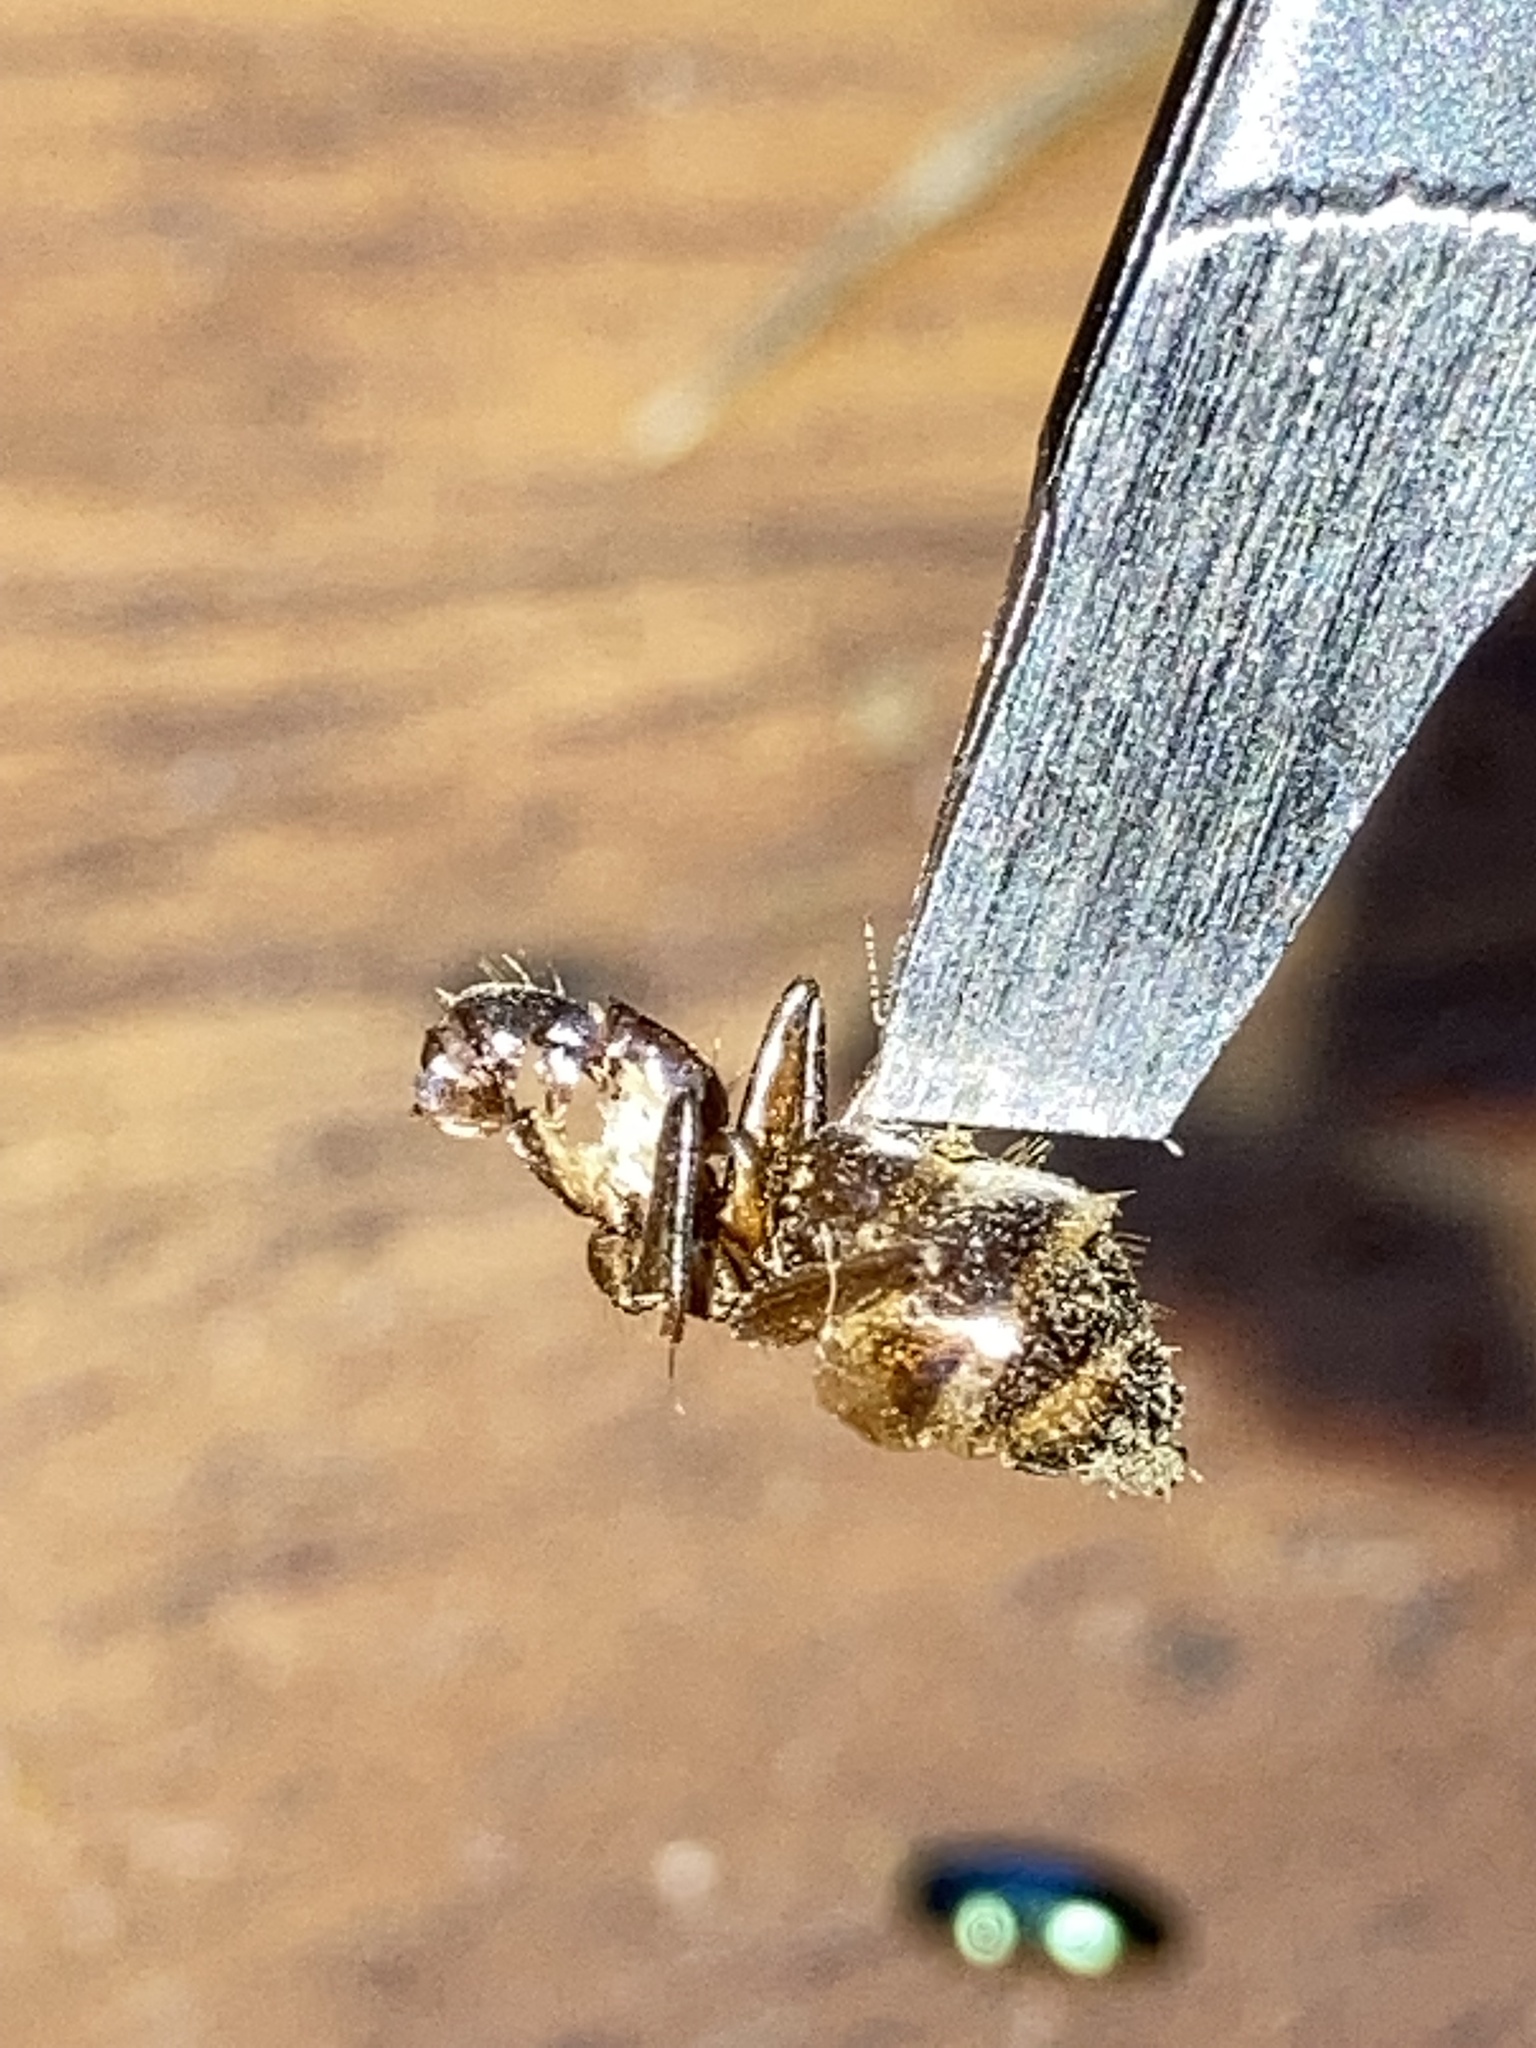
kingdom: Animalia
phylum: Arthropoda
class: Insecta
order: Hymenoptera
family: Formicidae
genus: Camponotus
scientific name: Camponotus pennsylvanicus
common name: Black carpenter ant
